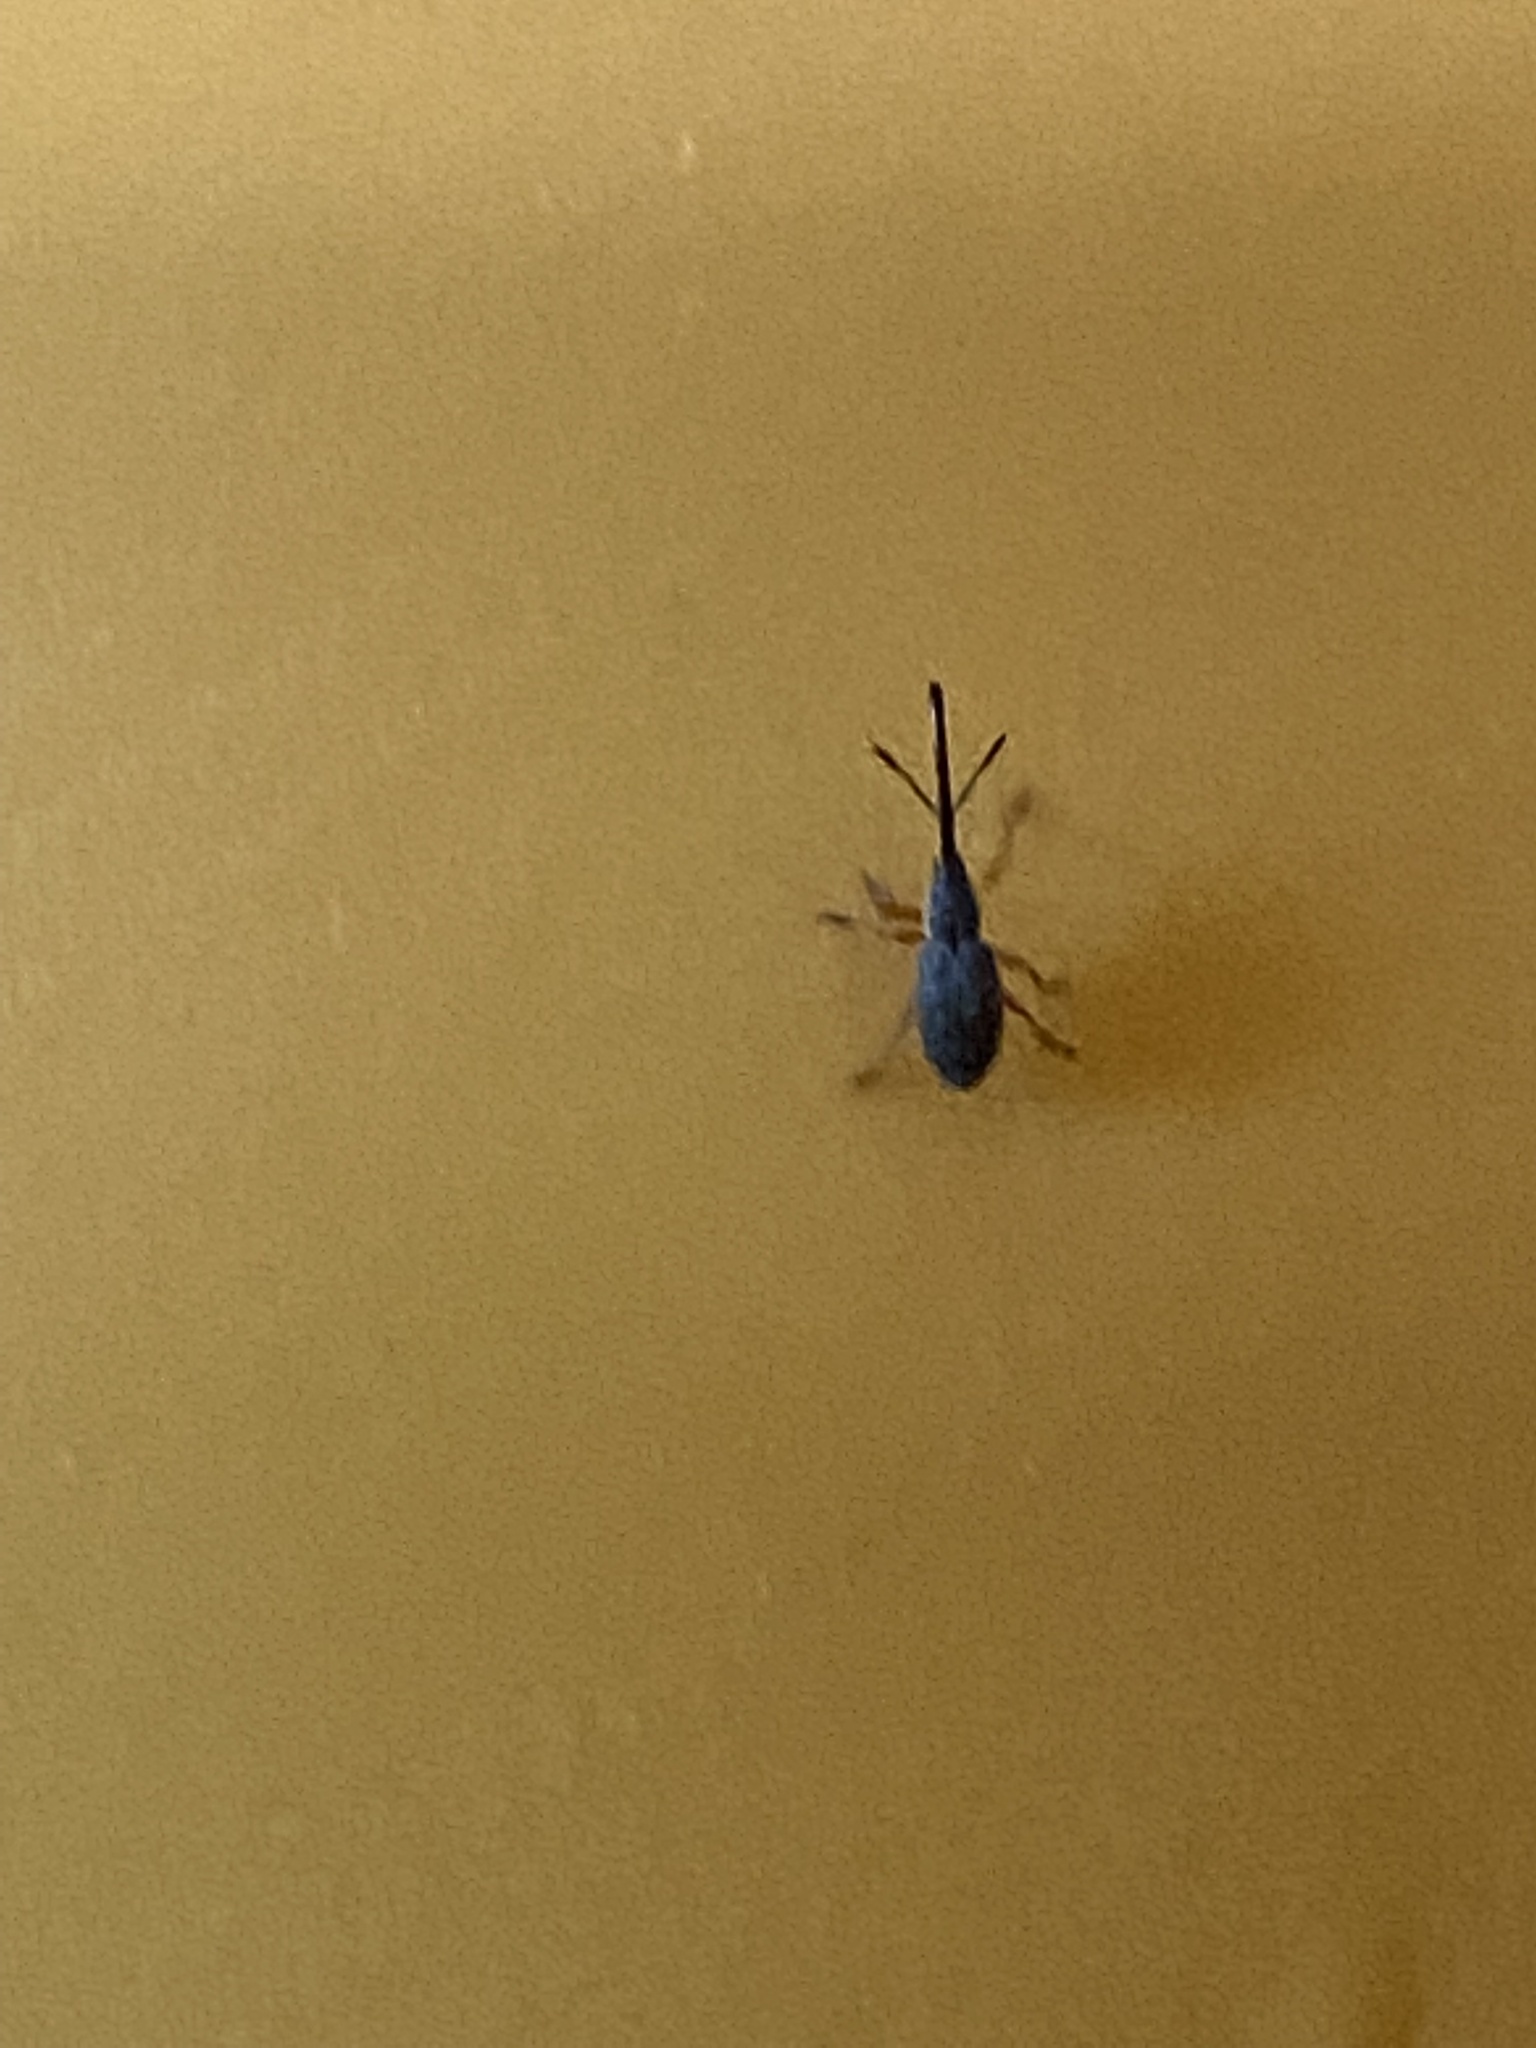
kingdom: Animalia
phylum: Arthropoda
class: Insecta
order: Coleoptera
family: Brentidae
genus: Rhopalapion
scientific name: Rhopalapion longirostre
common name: Hollyhock weevil
